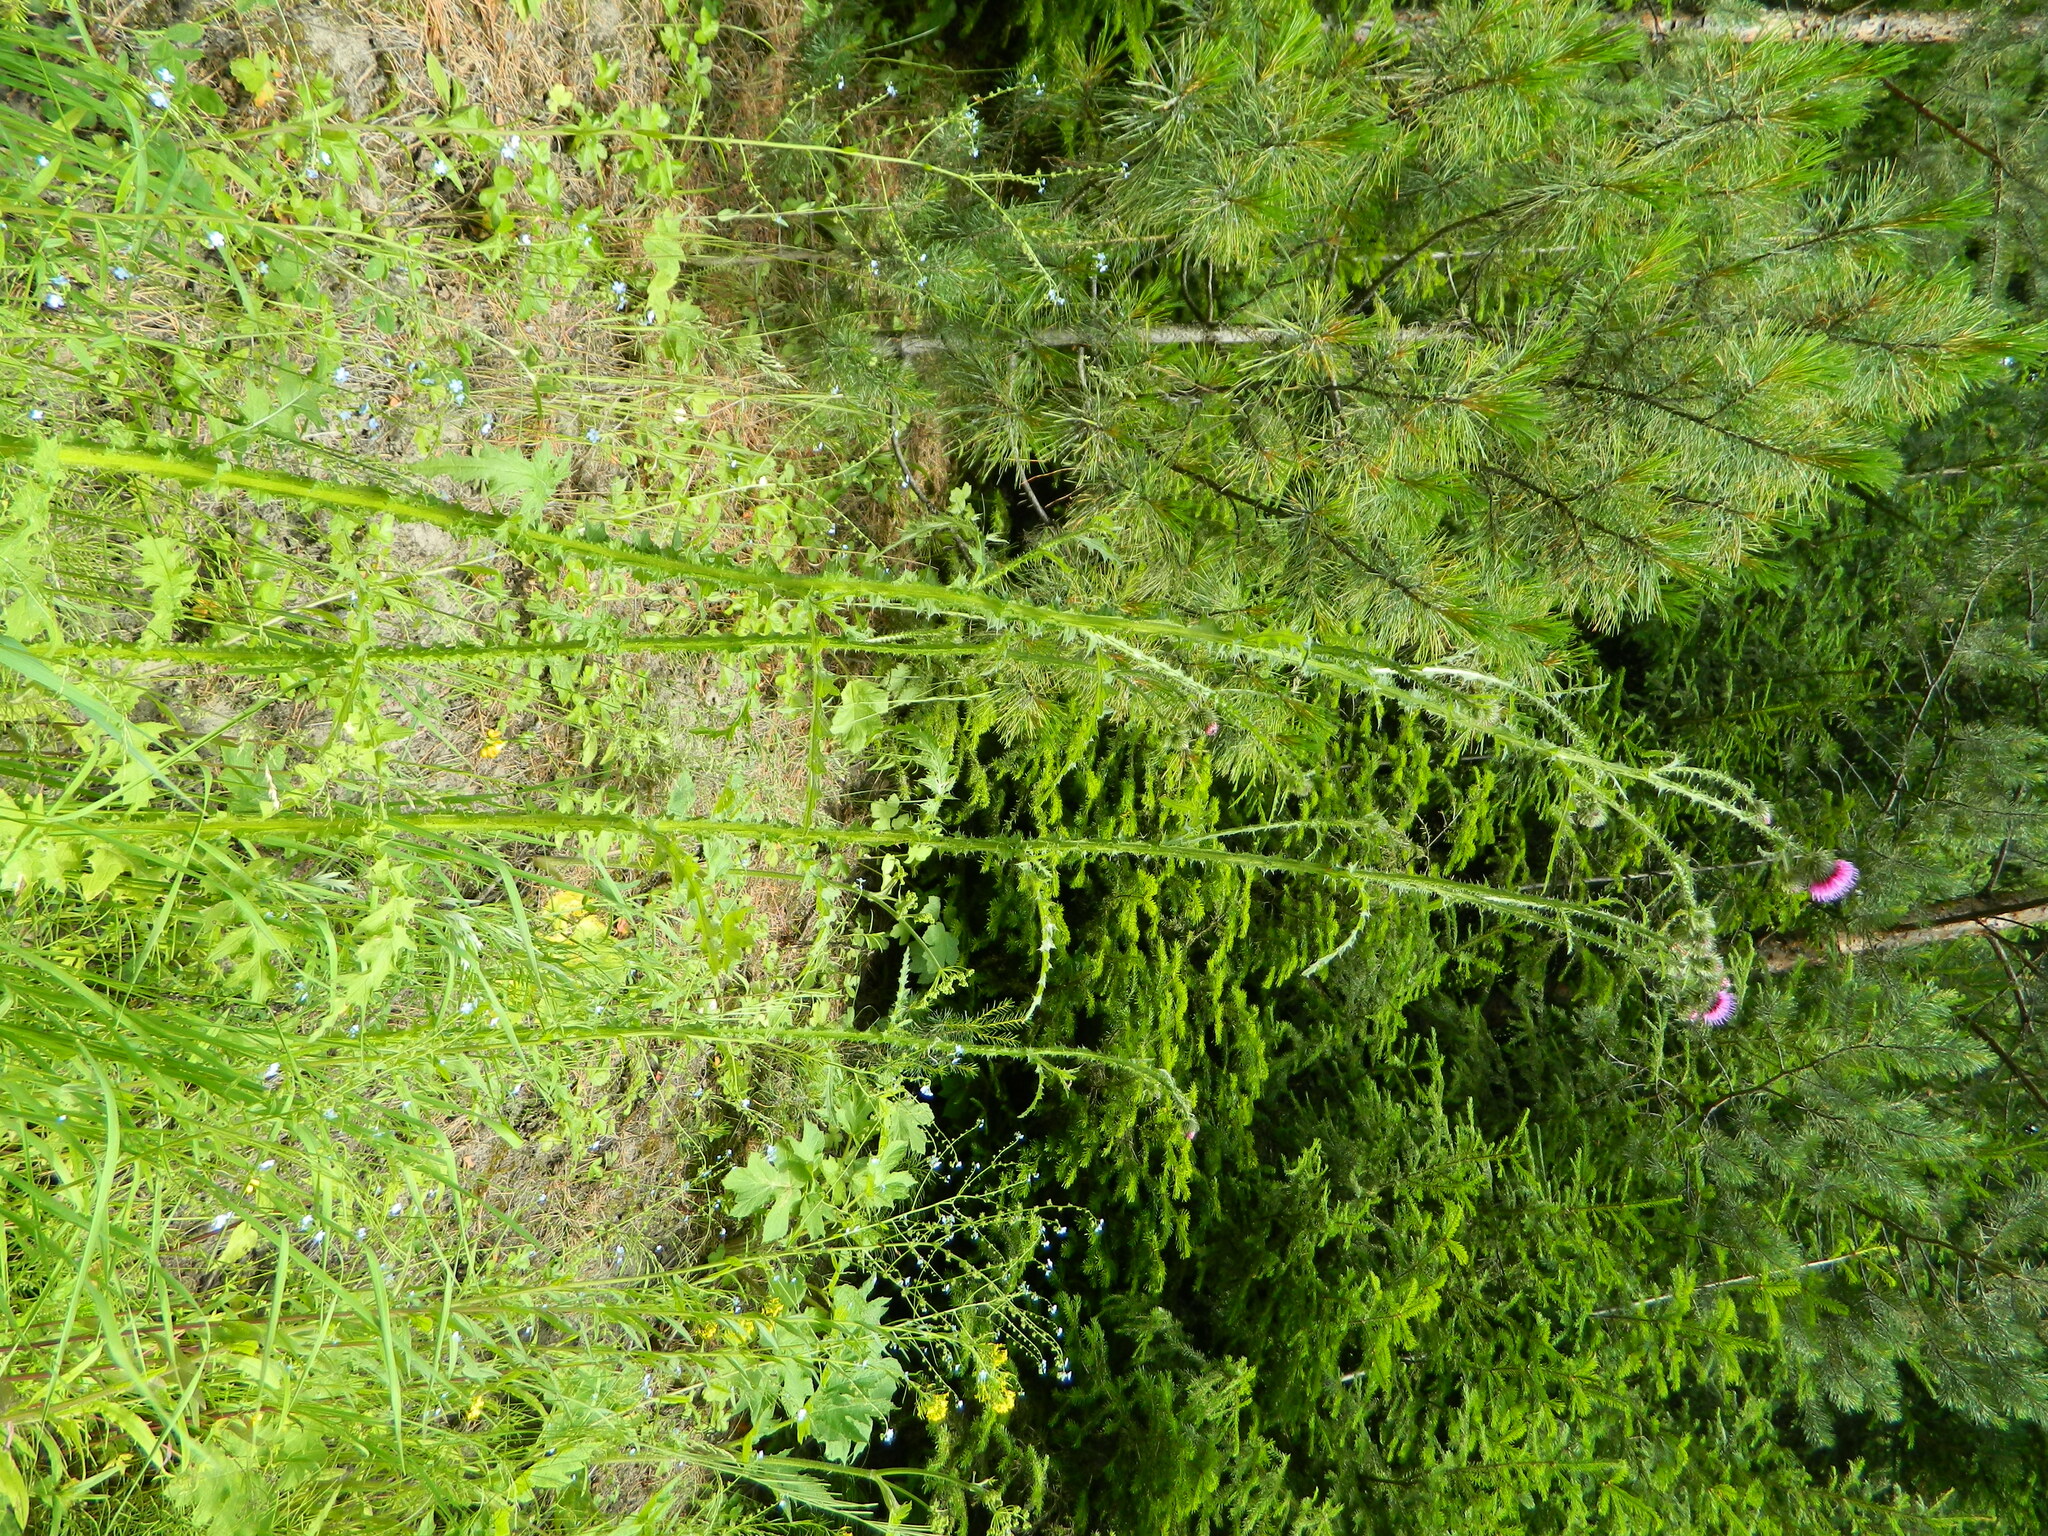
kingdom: Plantae
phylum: Tracheophyta
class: Magnoliopsida
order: Asterales
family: Asteraceae
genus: Carduus
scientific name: Carduus crispus
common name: Welted thistle
